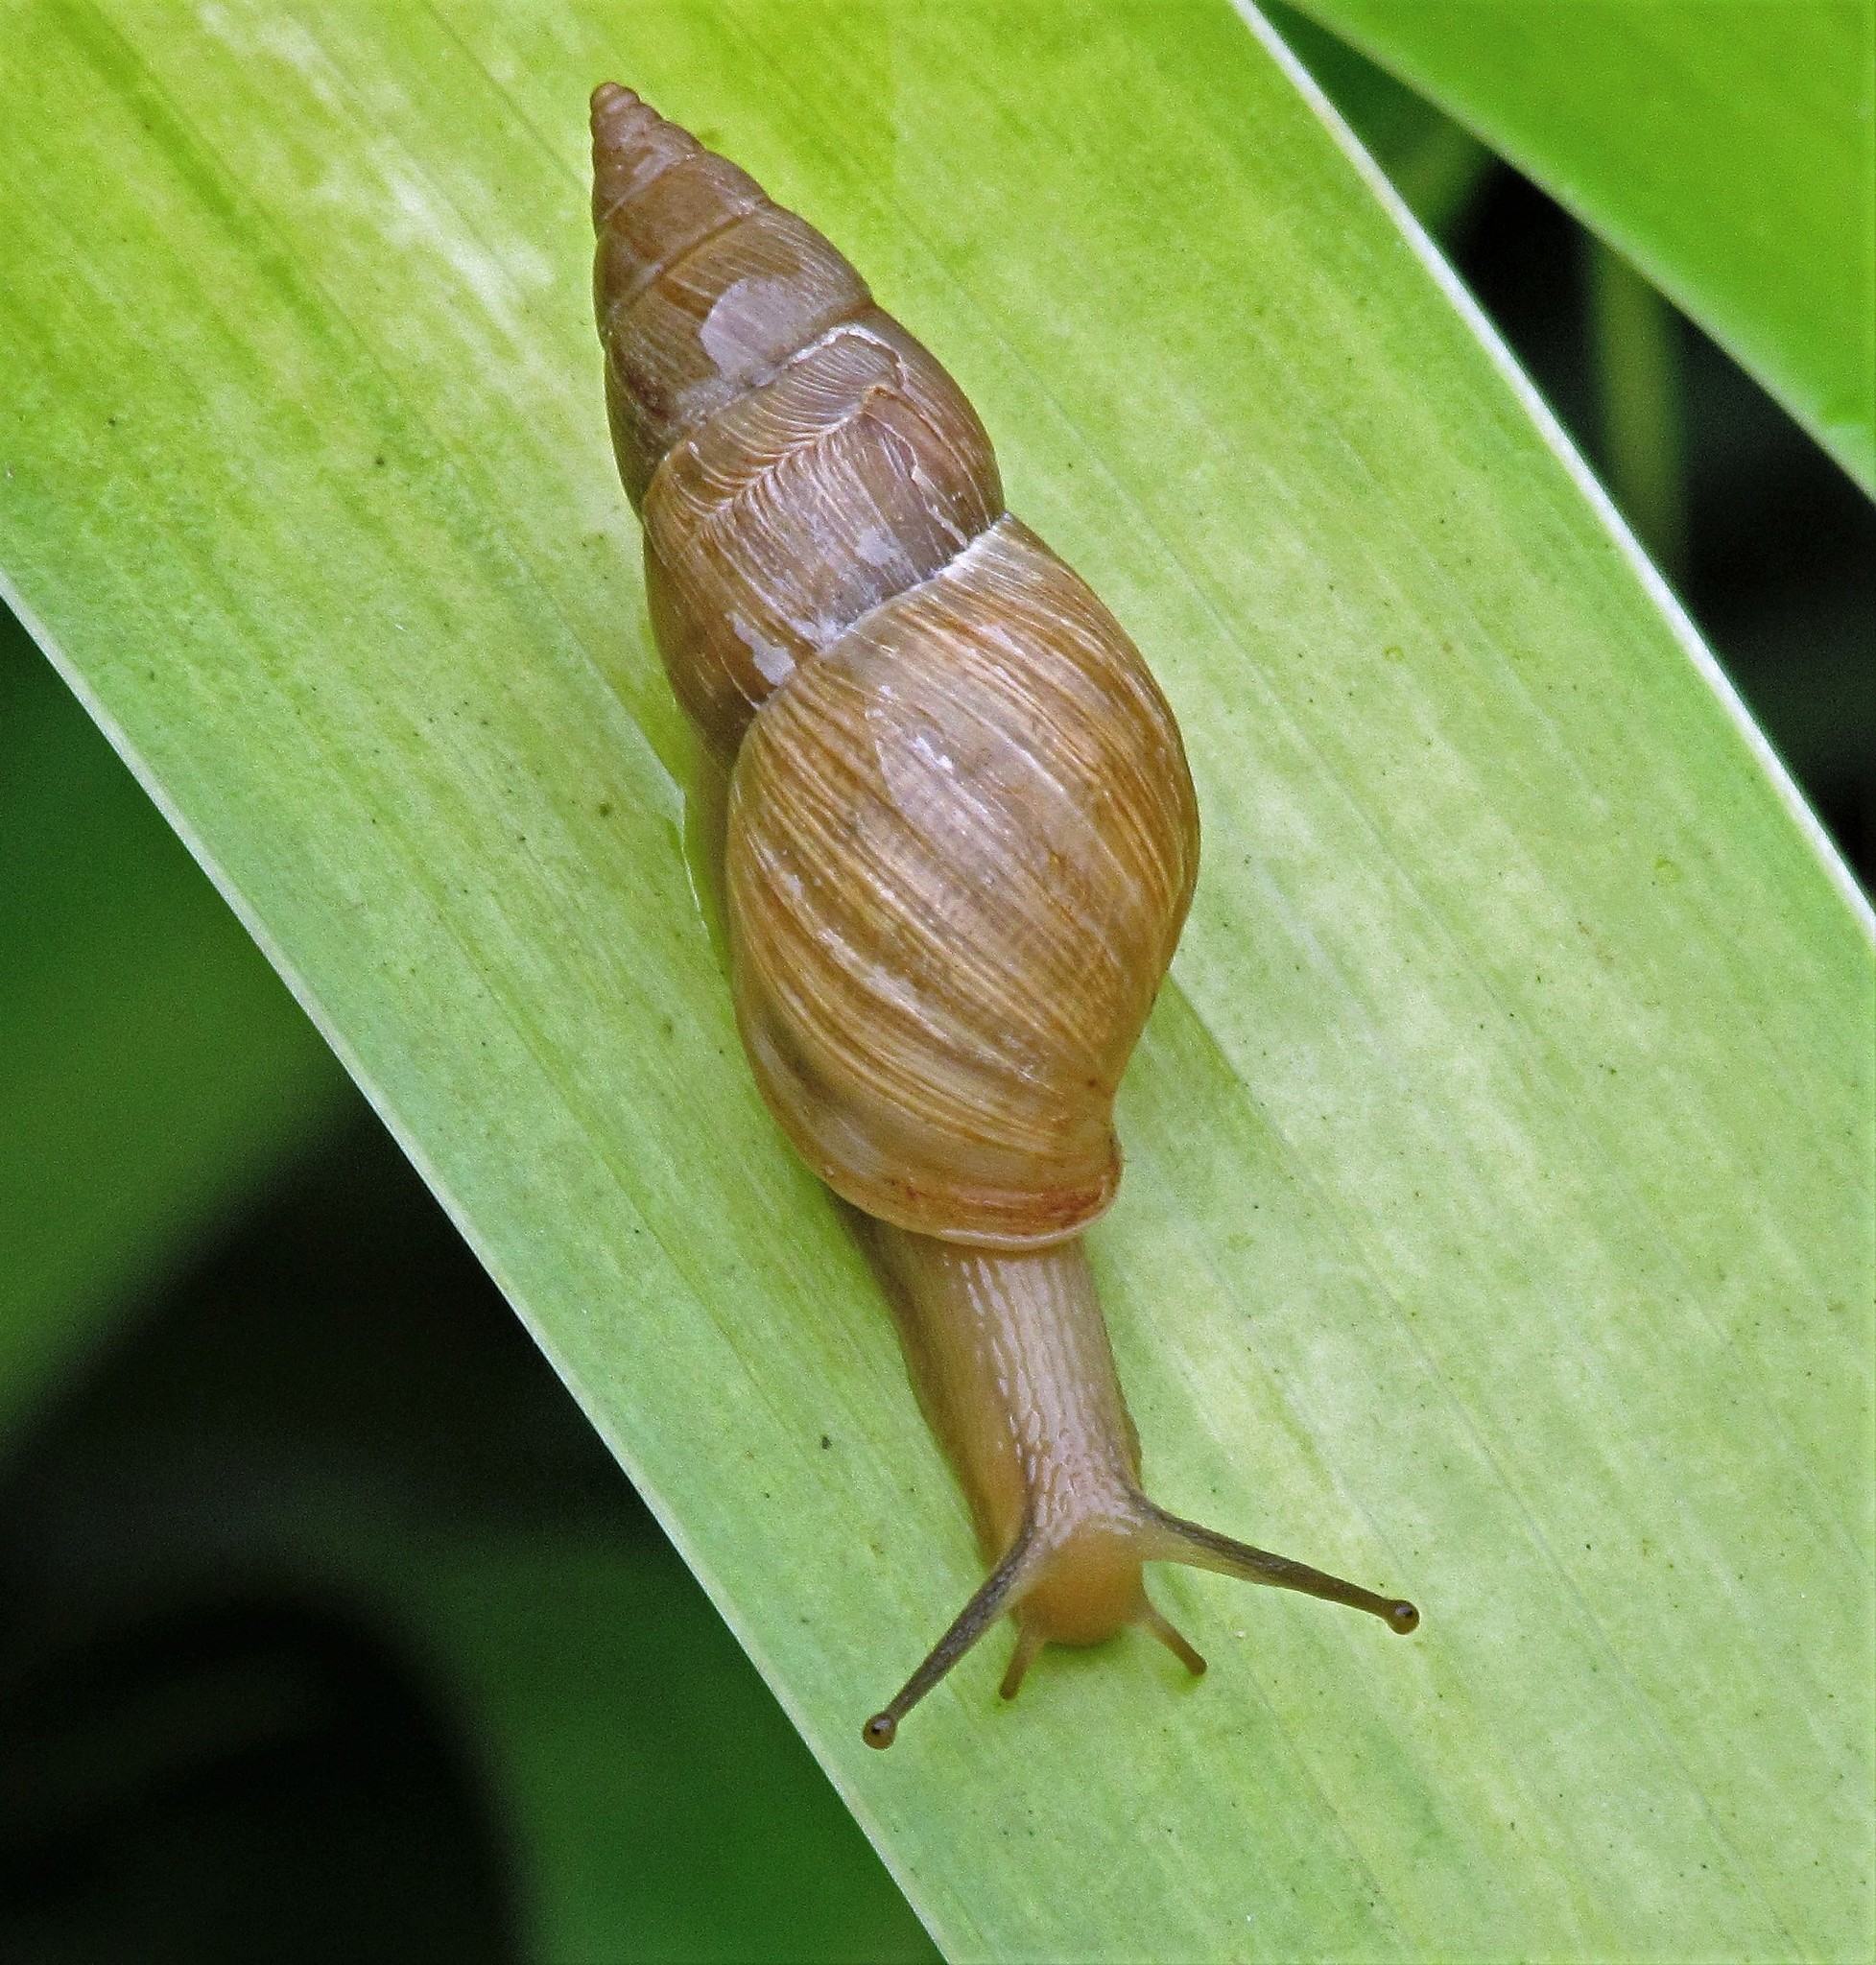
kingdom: Animalia
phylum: Mollusca
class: Gastropoda
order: Stylommatophora
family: Bulimulidae
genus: Bulimulus
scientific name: Bulimulus bonariensis
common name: Snail
